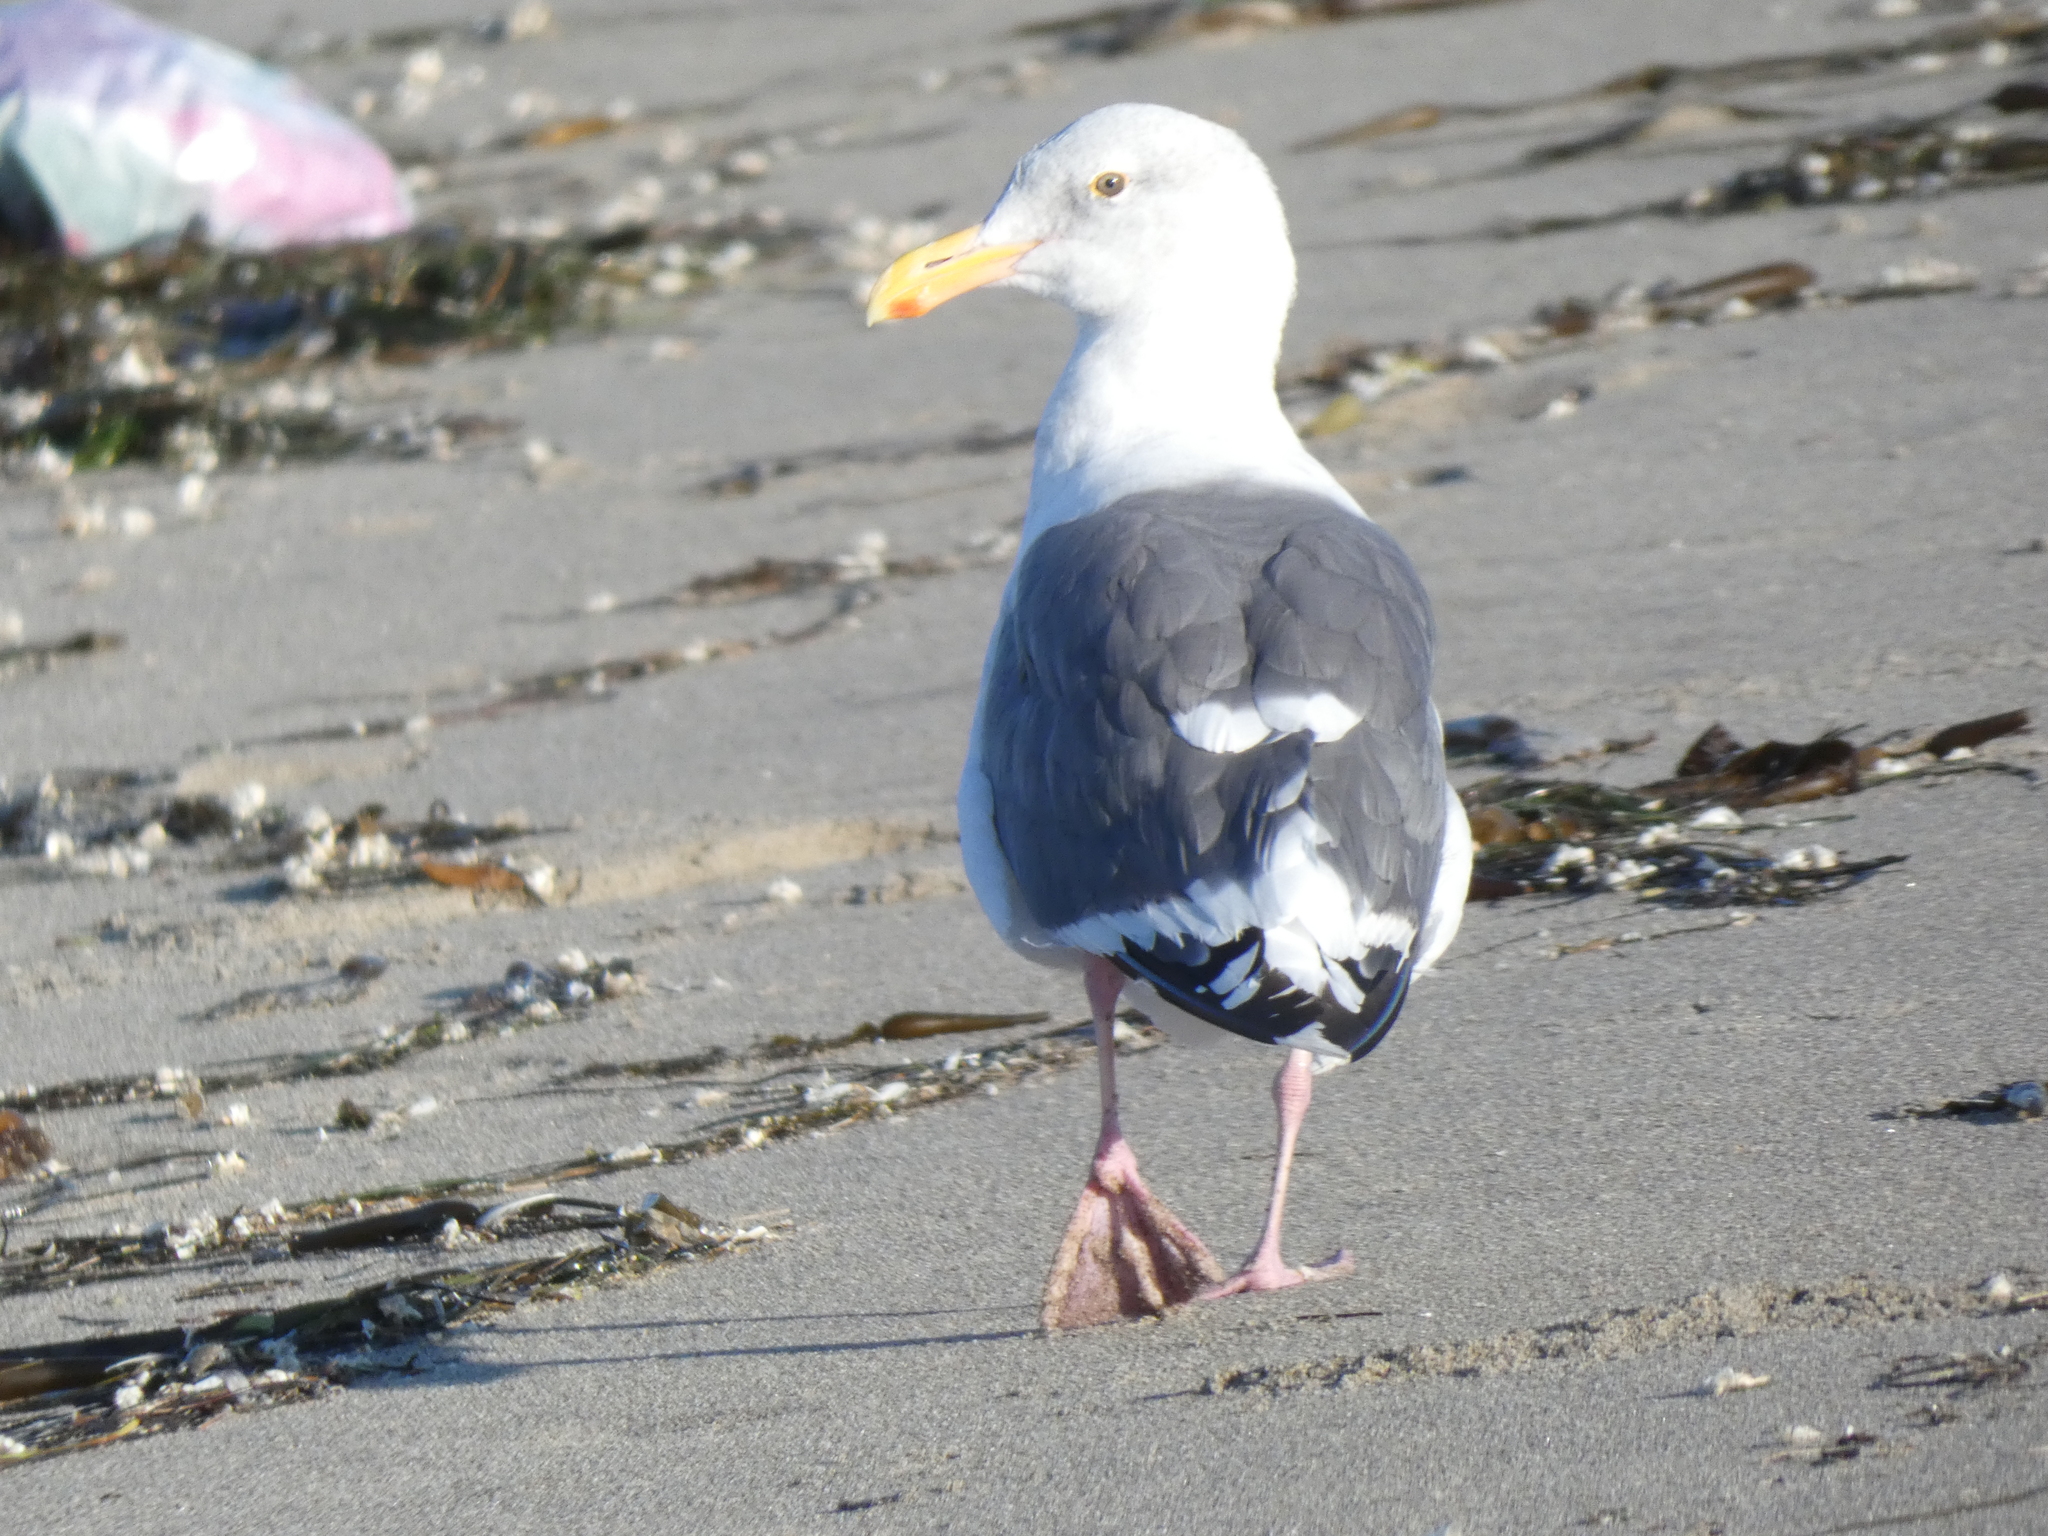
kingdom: Animalia
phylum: Chordata
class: Aves
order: Charadriiformes
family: Laridae
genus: Larus
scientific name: Larus occidentalis
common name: Western gull
